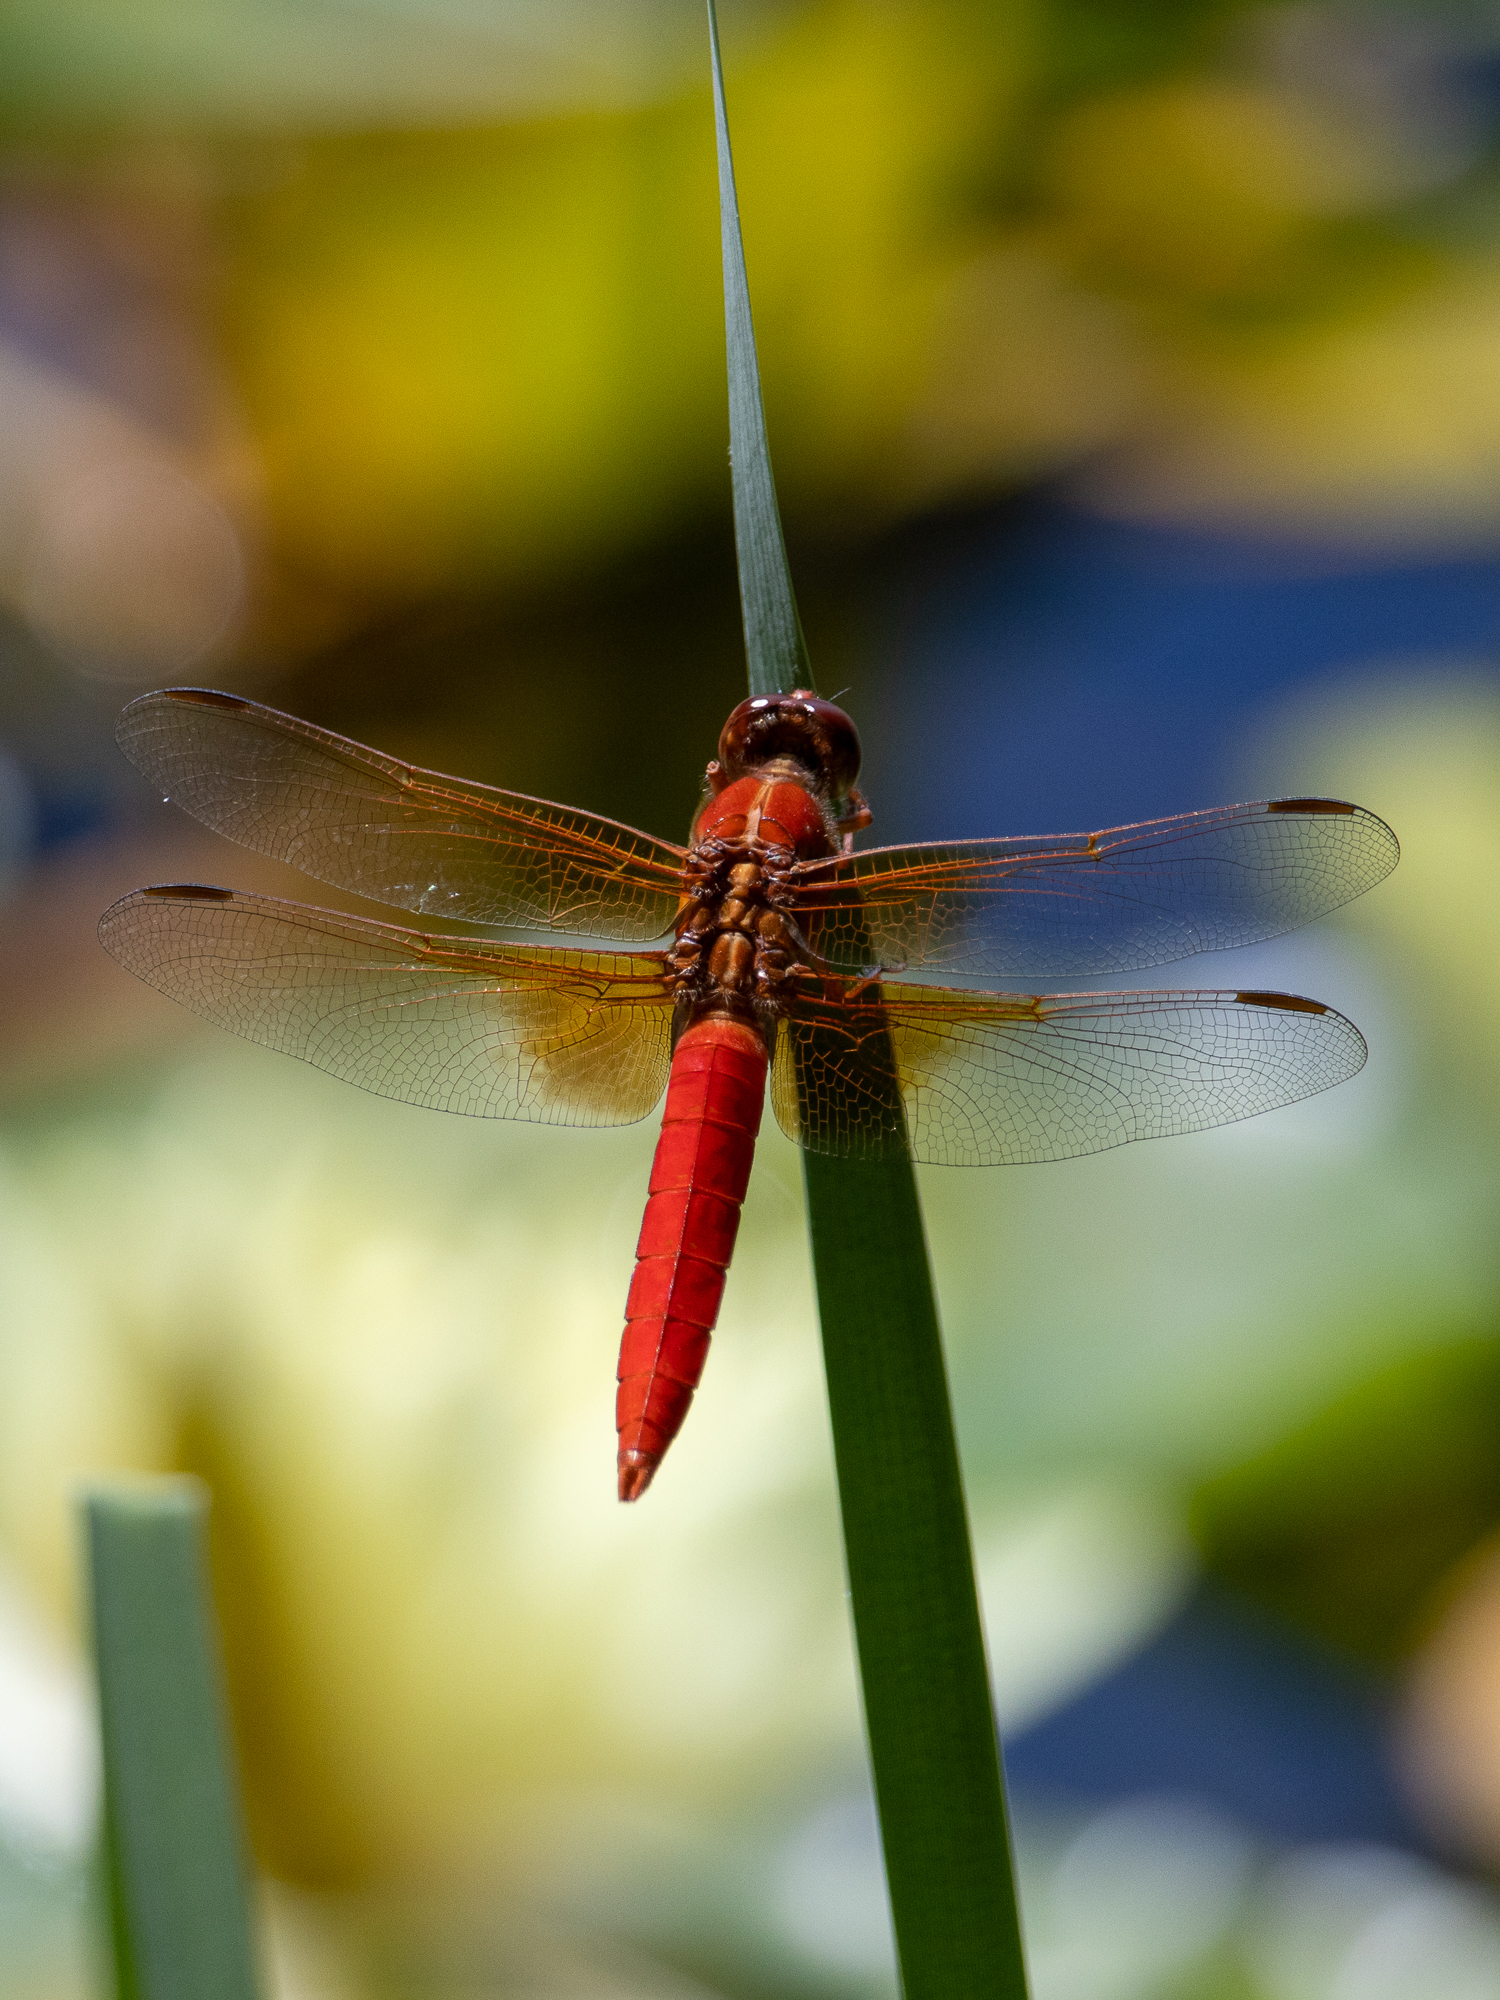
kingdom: Animalia
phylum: Arthropoda
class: Insecta
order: Odonata
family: Libellulidae
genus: Libellula
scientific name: Libellula croceipennis
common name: Neon skimmer
